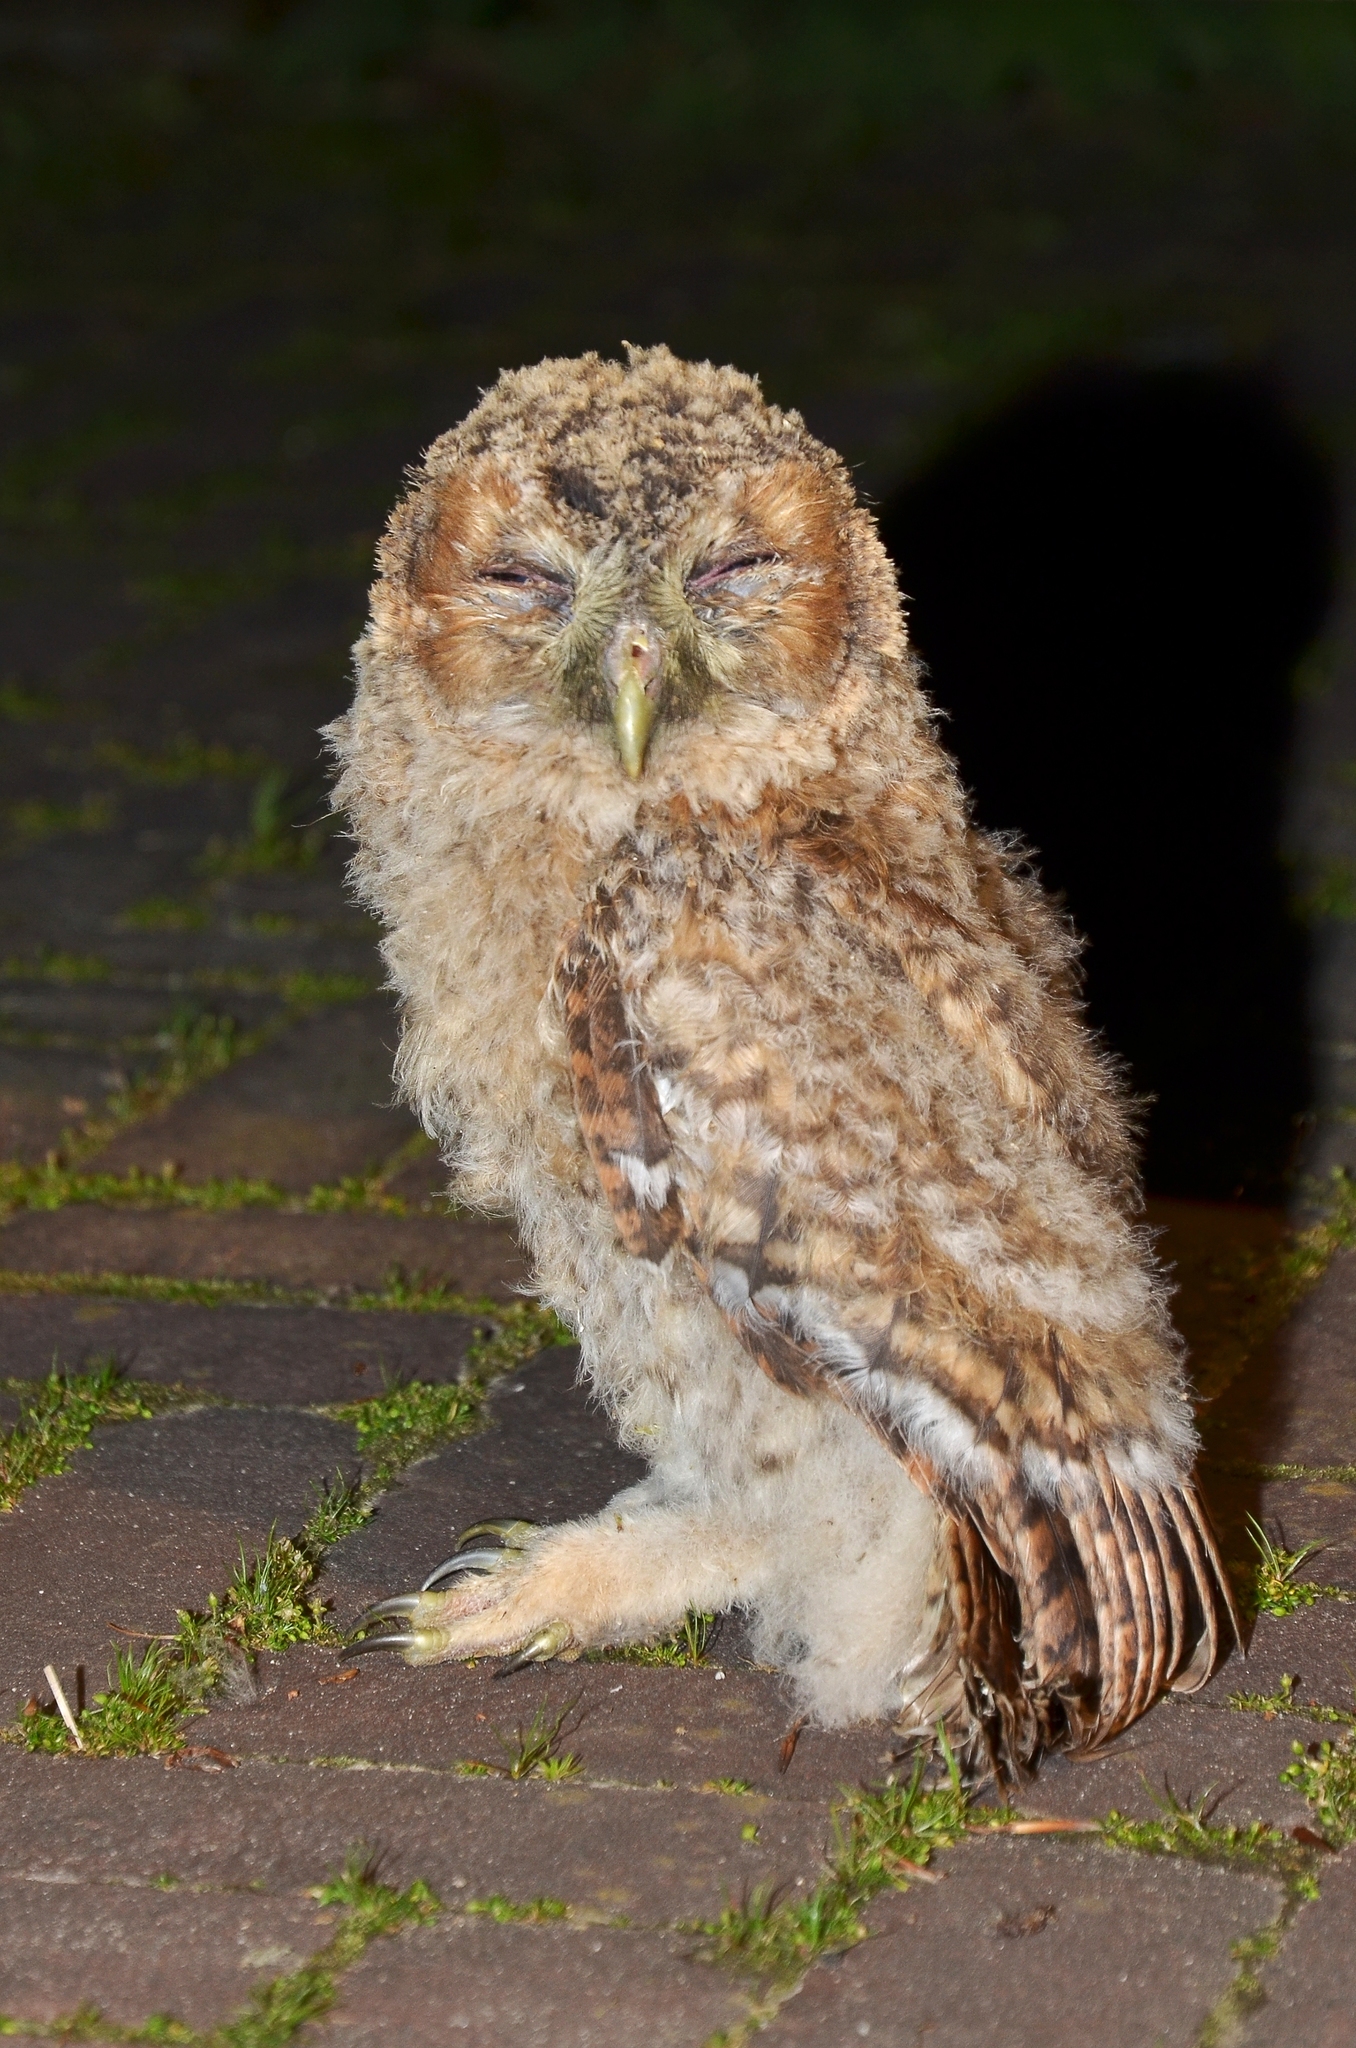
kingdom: Animalia
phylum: Chordata
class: Aves
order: Strigiformes
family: Strigidae
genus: Strix
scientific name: Strix aluco
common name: Tawny owl
